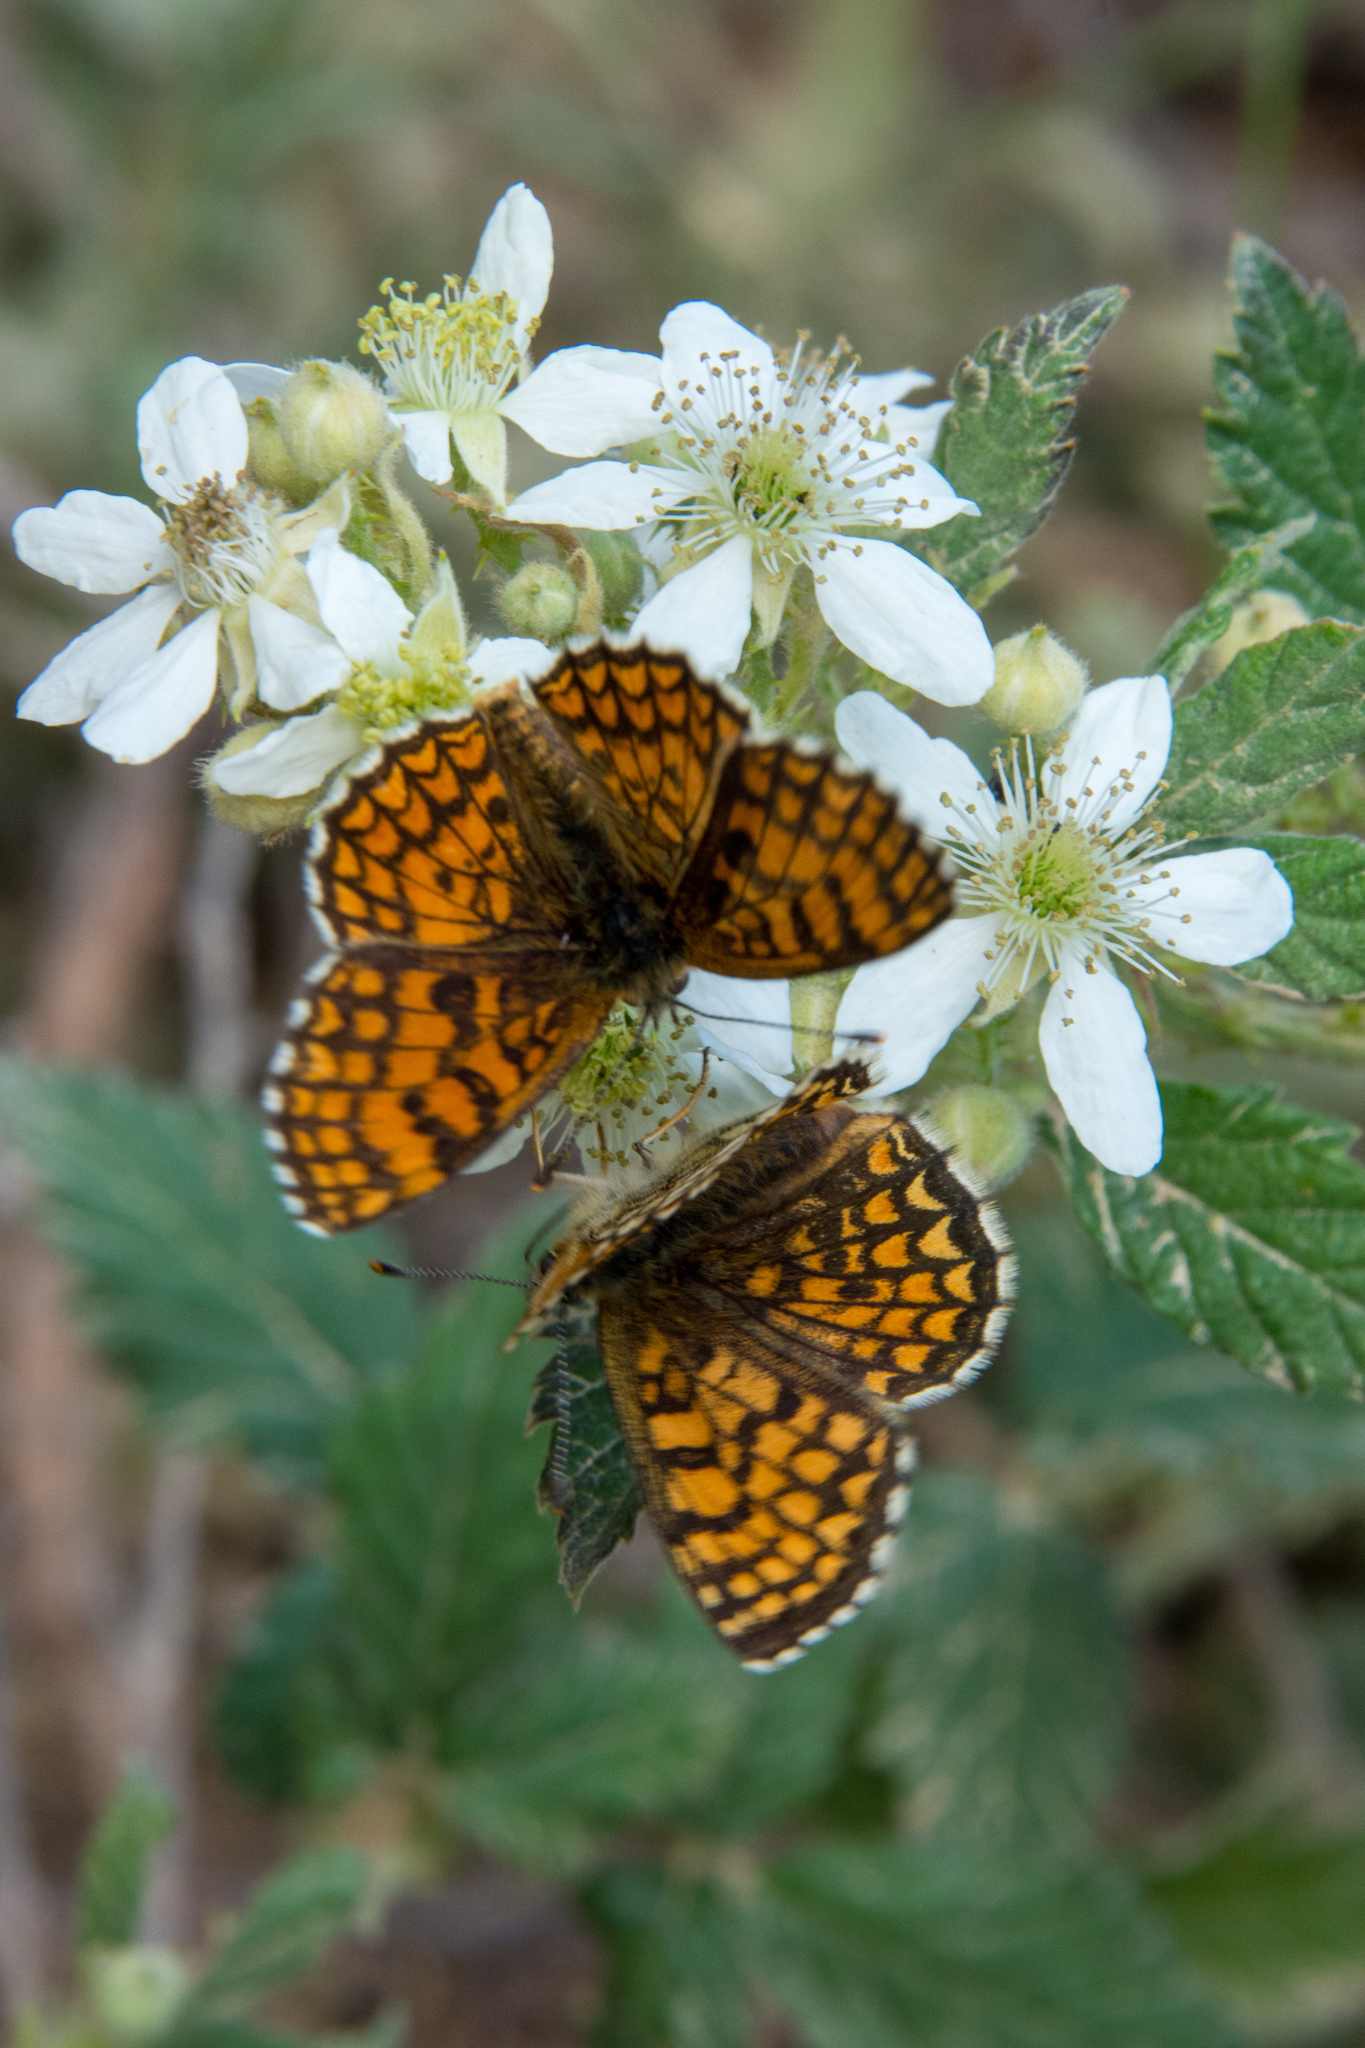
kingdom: Animalia
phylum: Arthropoda
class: Insecta
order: Lepidoptera
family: Nymphalidae
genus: Mellicta
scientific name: Mellicta athalia
